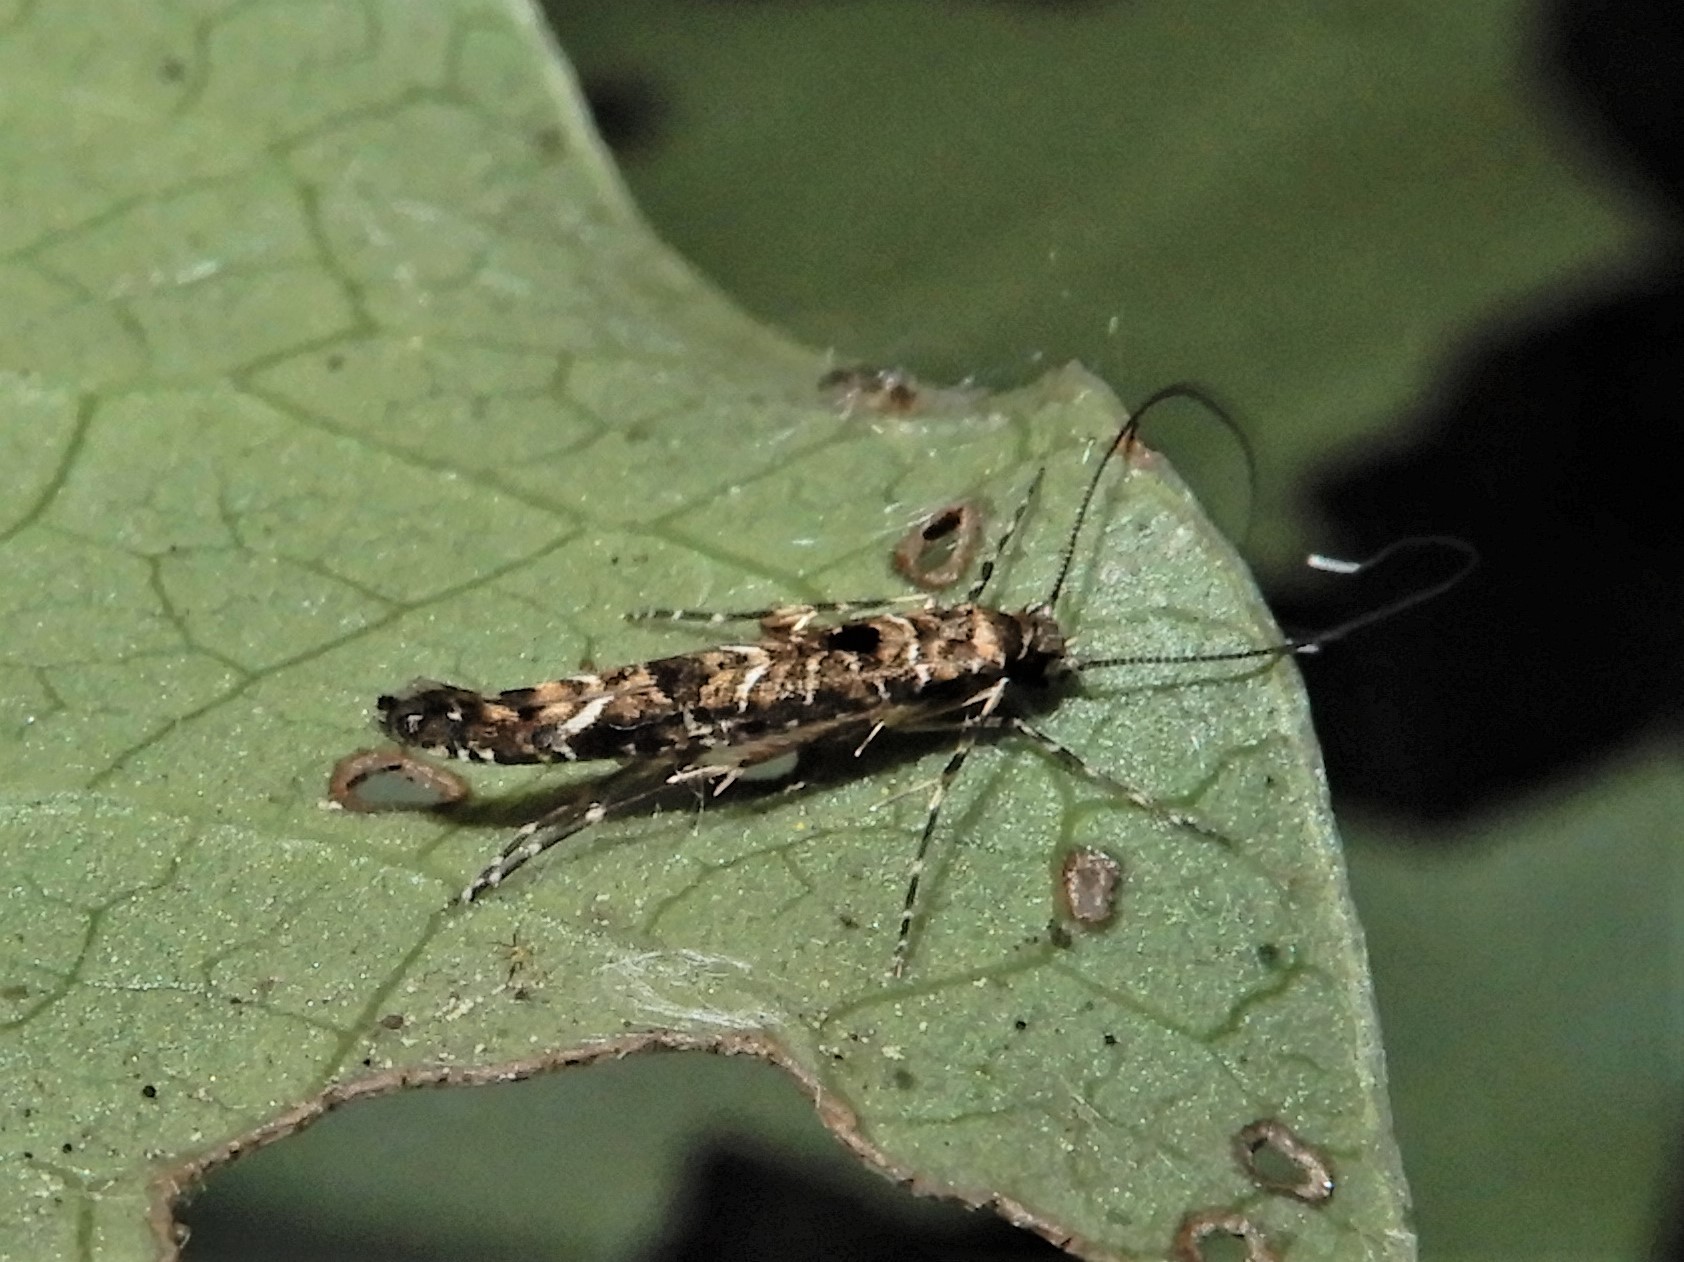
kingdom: Animalia
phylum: Arthropoda
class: Insecta
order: Lepidoptera
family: Gracillariidae
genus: Conopomorpha
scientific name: Conopomorpha cyanospila
